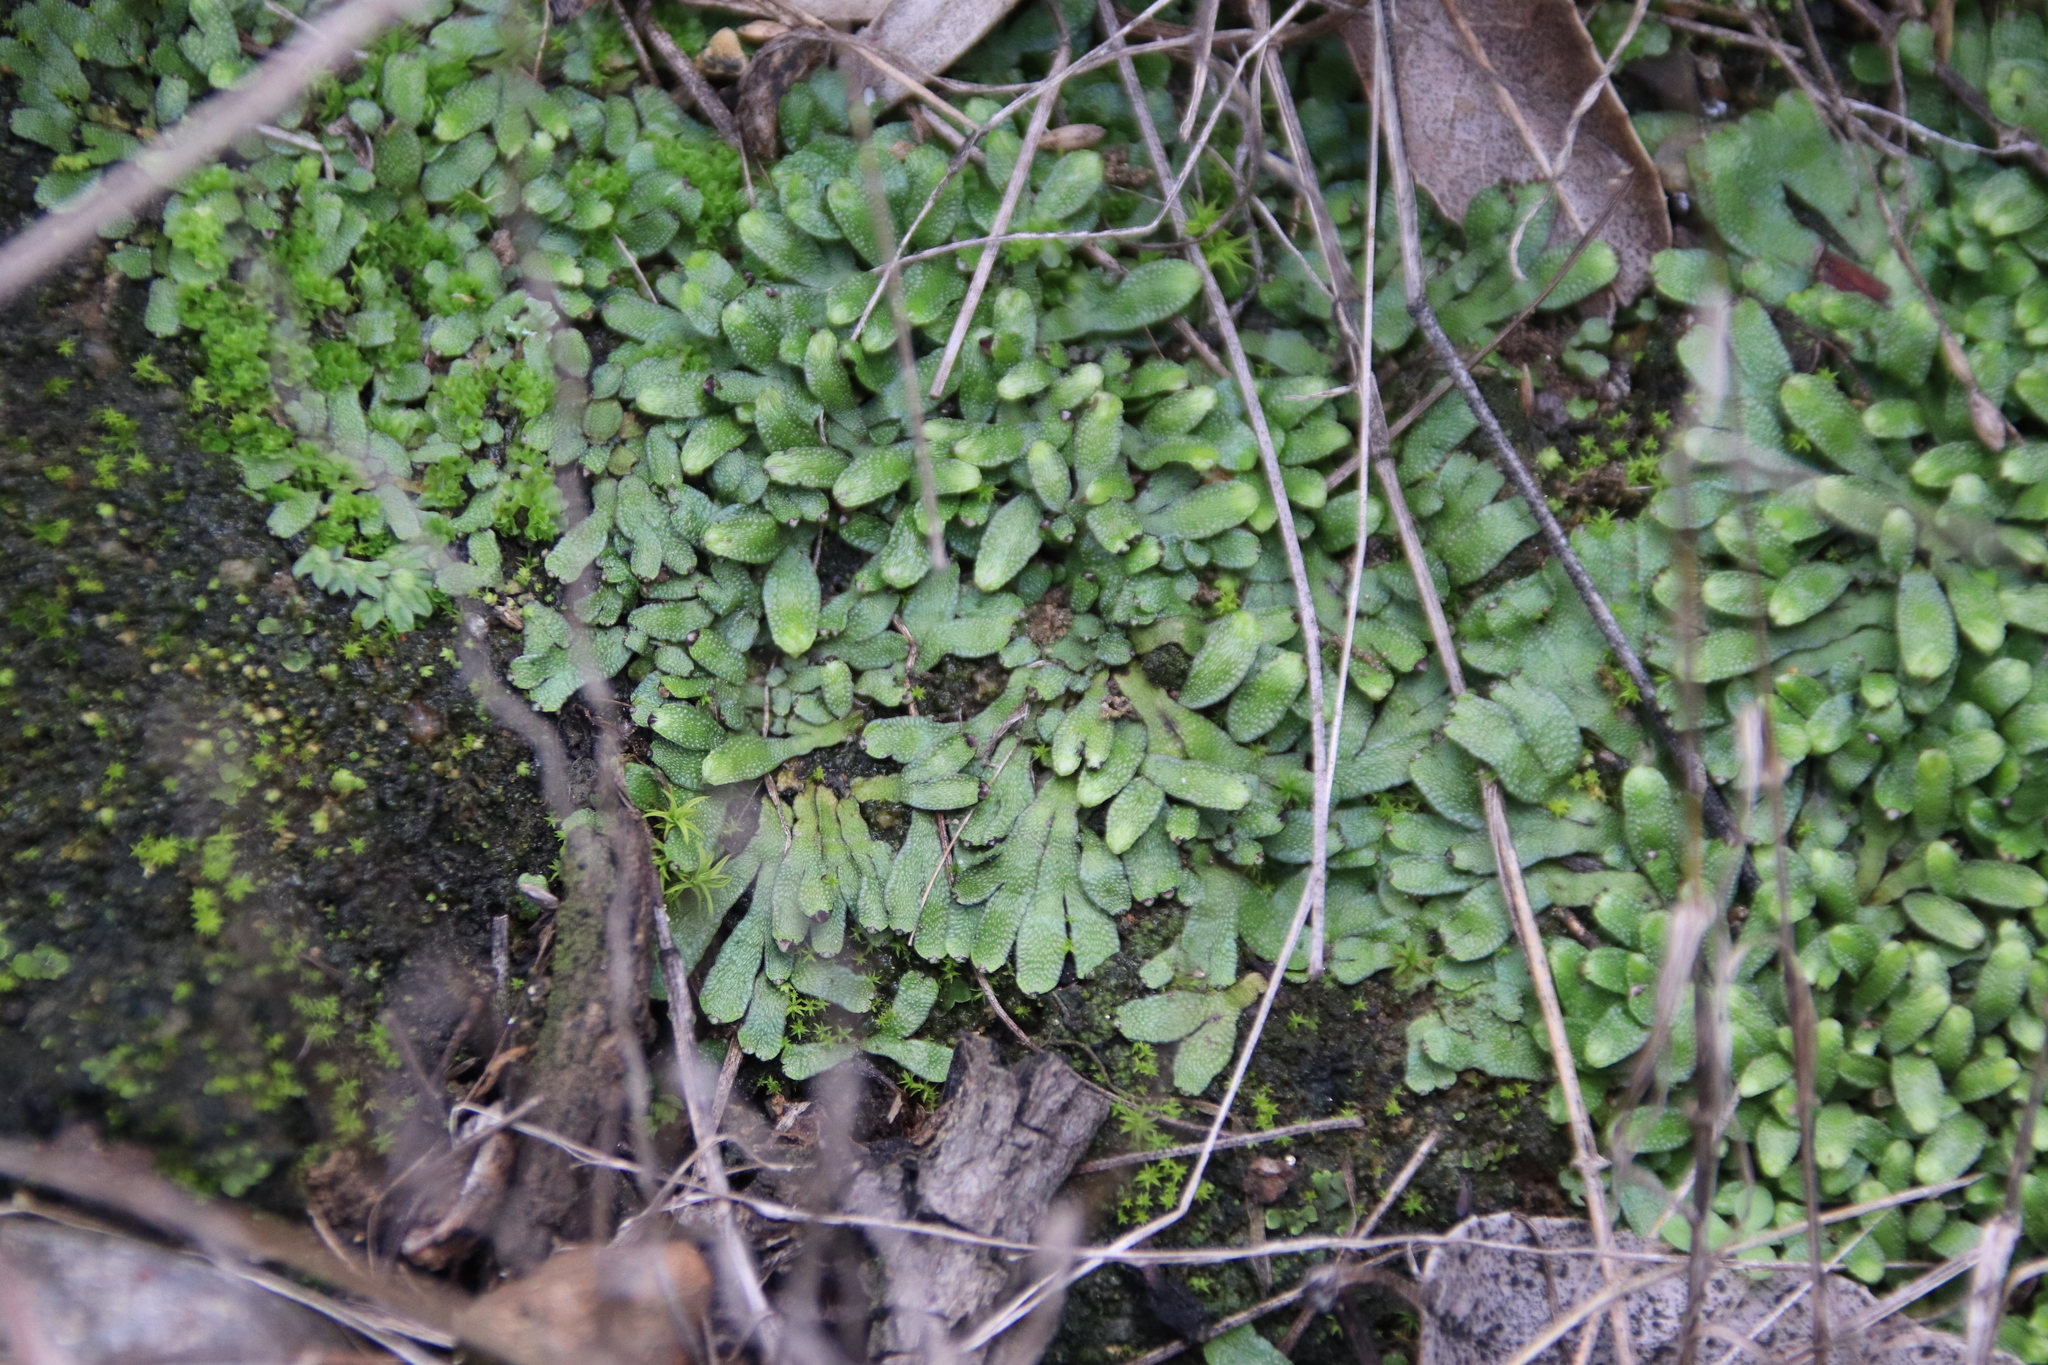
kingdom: Plantae
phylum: Marchantiophyta
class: Marchantiopsida
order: Marchantiales
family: Targioniaceae
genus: Targionia
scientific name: Targionia hypophylla
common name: Orobus-seed liverwort
